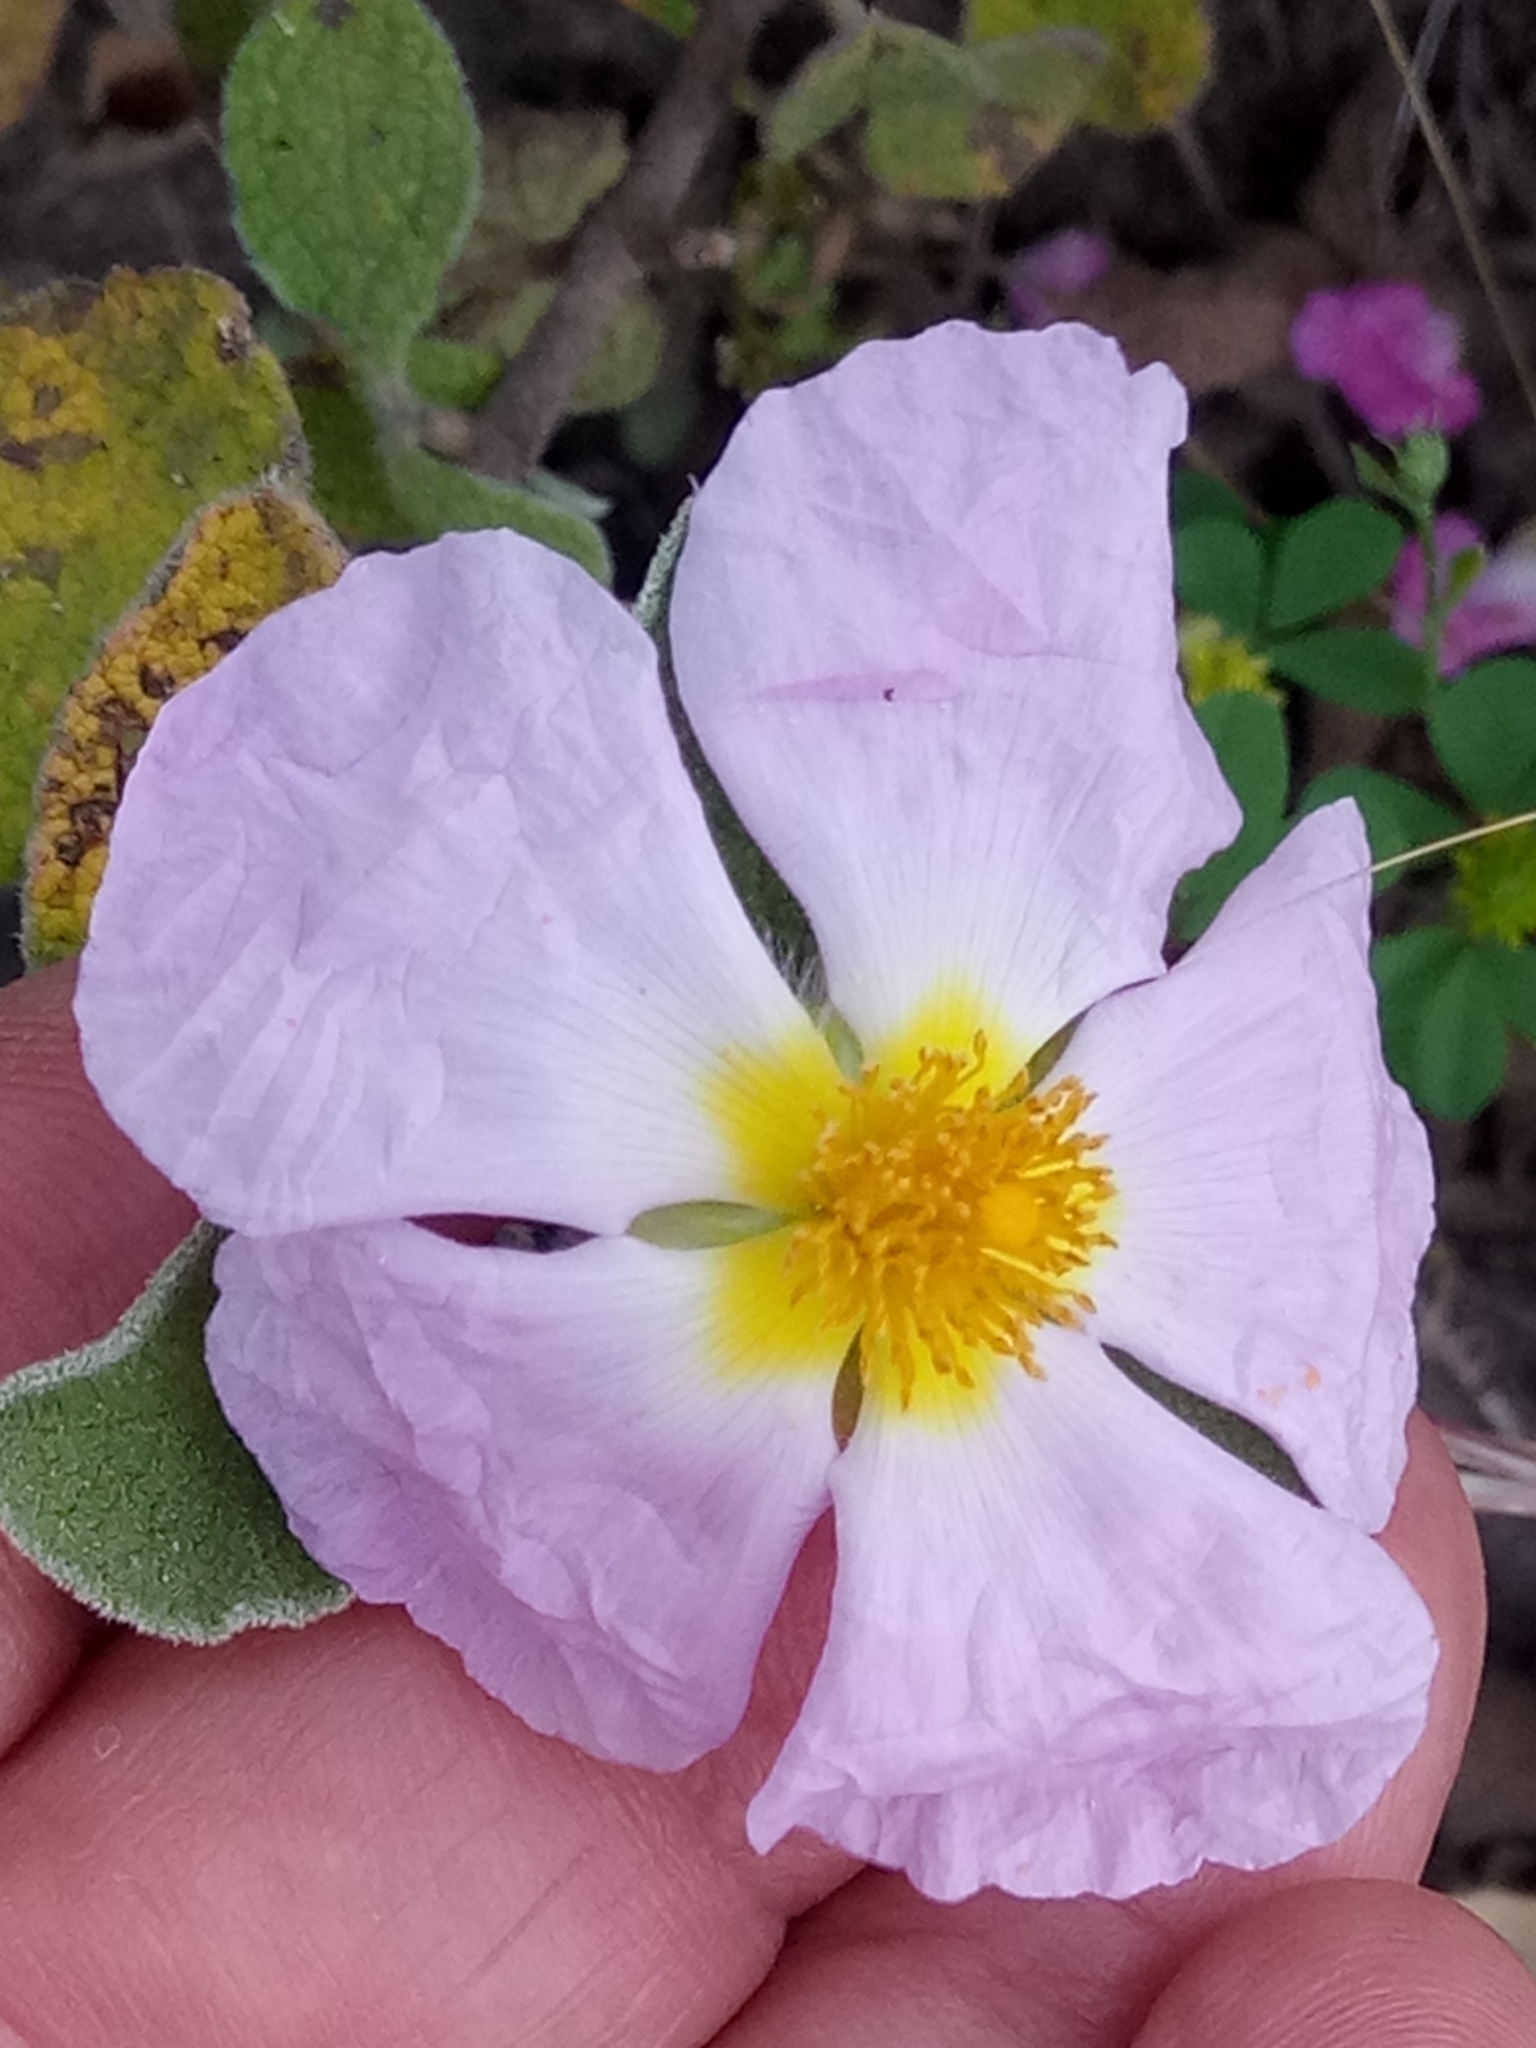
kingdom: Plantae
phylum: Tracheophyta
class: Magnoliopsida
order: Malvales
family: Cistaceae
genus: Cistus
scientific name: Cistus creticus
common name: Cretan rockrose
